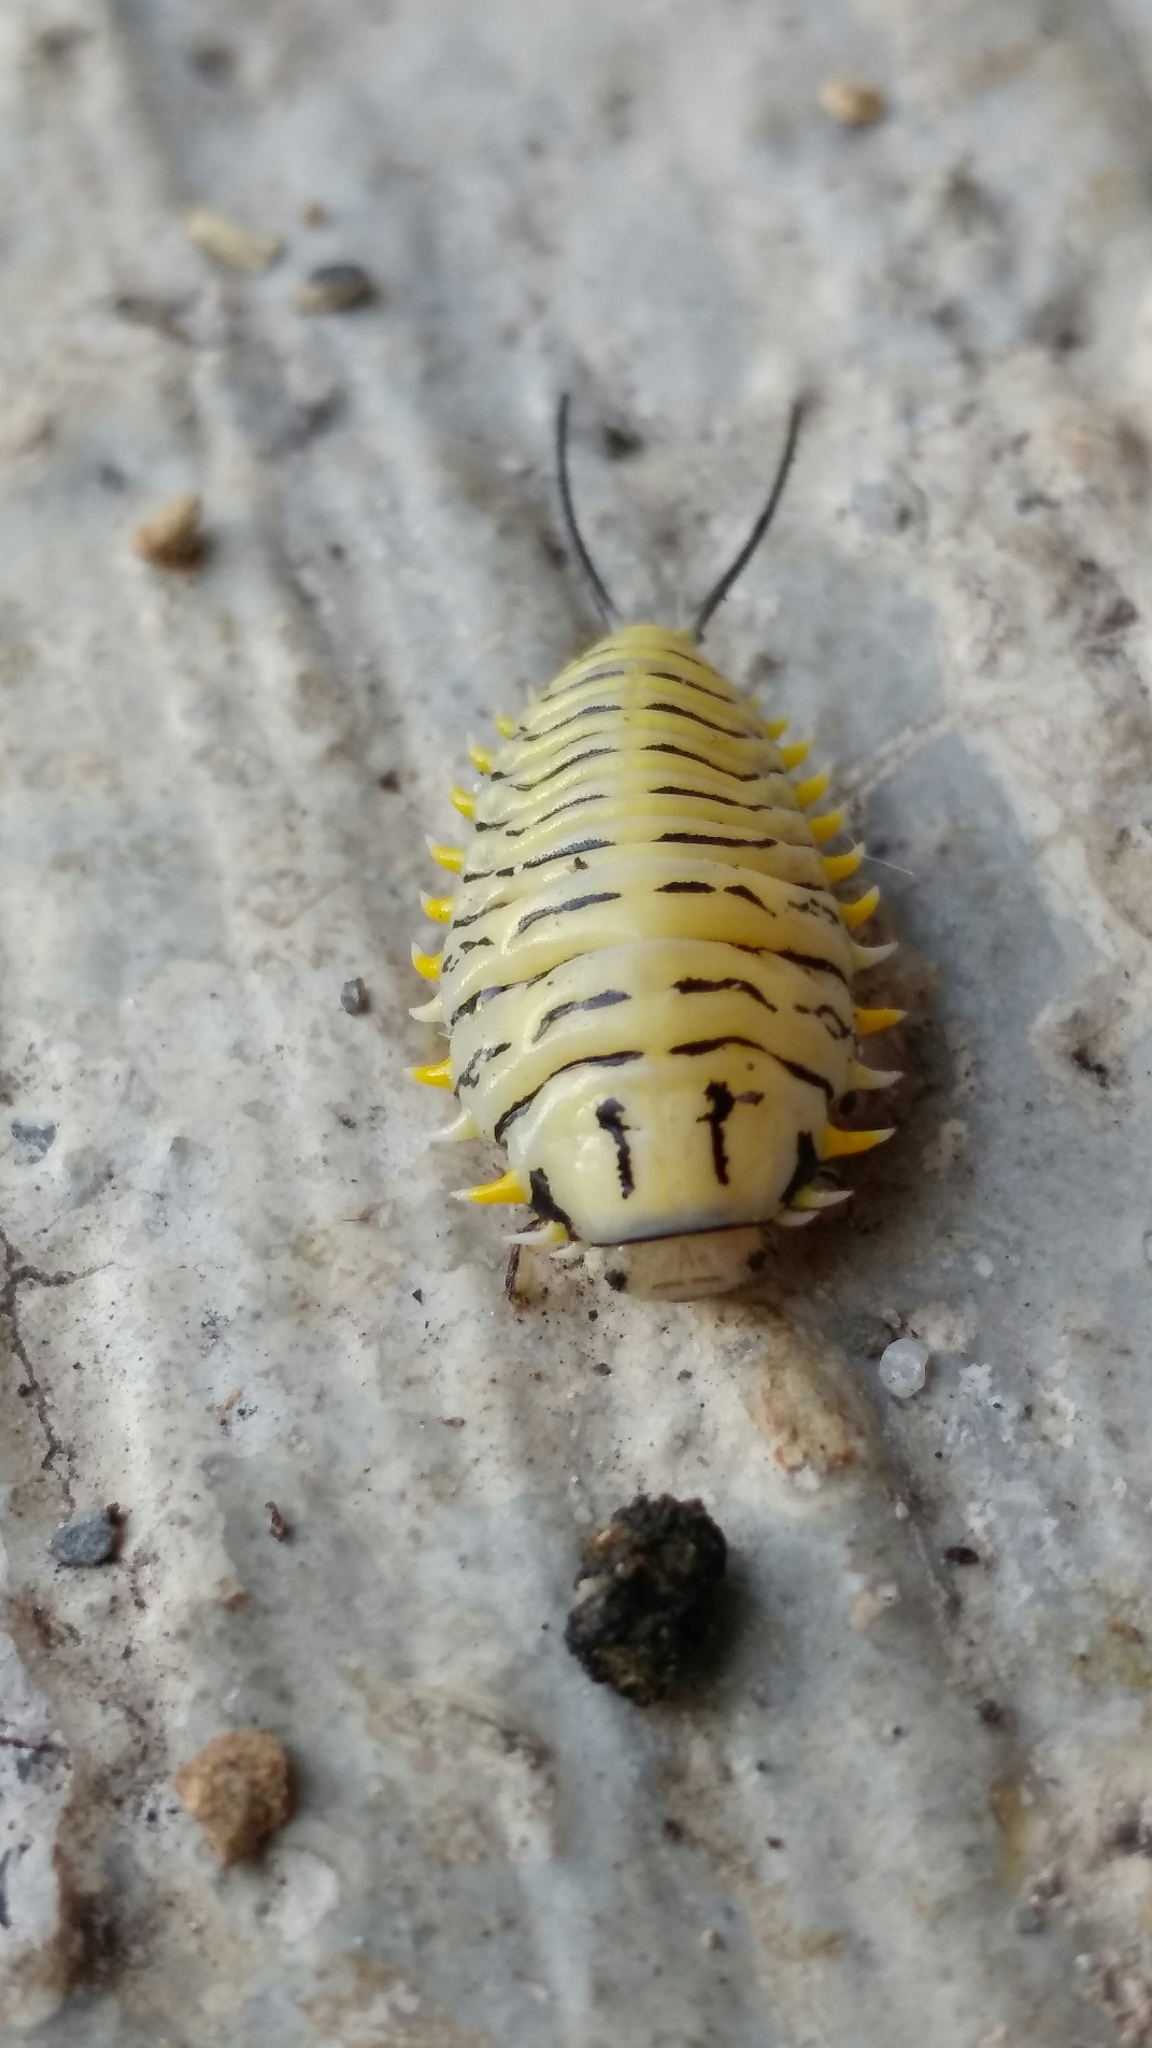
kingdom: Animalia
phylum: Arthropoda
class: Insecta
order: Coleoptera
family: Chrysomelidae
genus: Physonota
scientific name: Physonota alutacea
